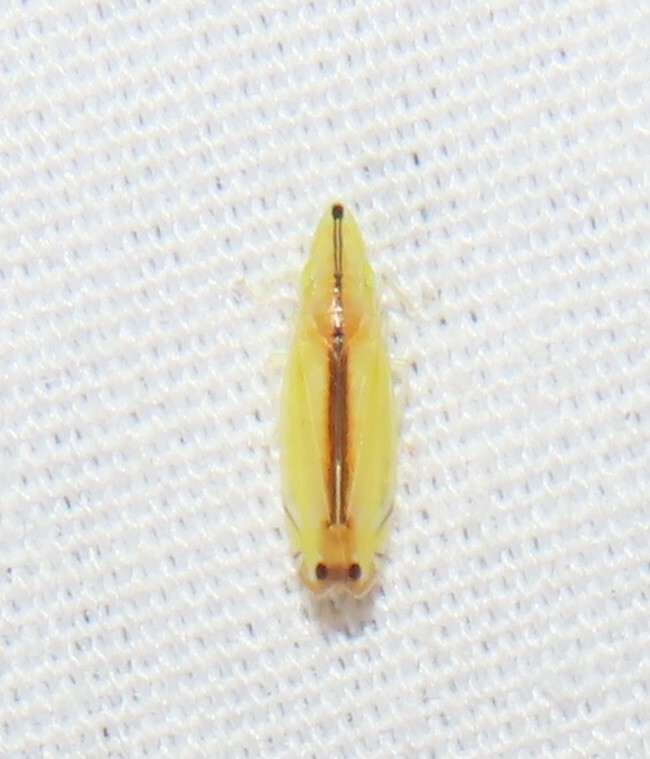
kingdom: Animalia
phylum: Arthropoda
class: Insecta
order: Hemiptera
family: Cicadellidae
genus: Sophonia
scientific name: Sophonia orientalis
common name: Two-spotted leafhopper
